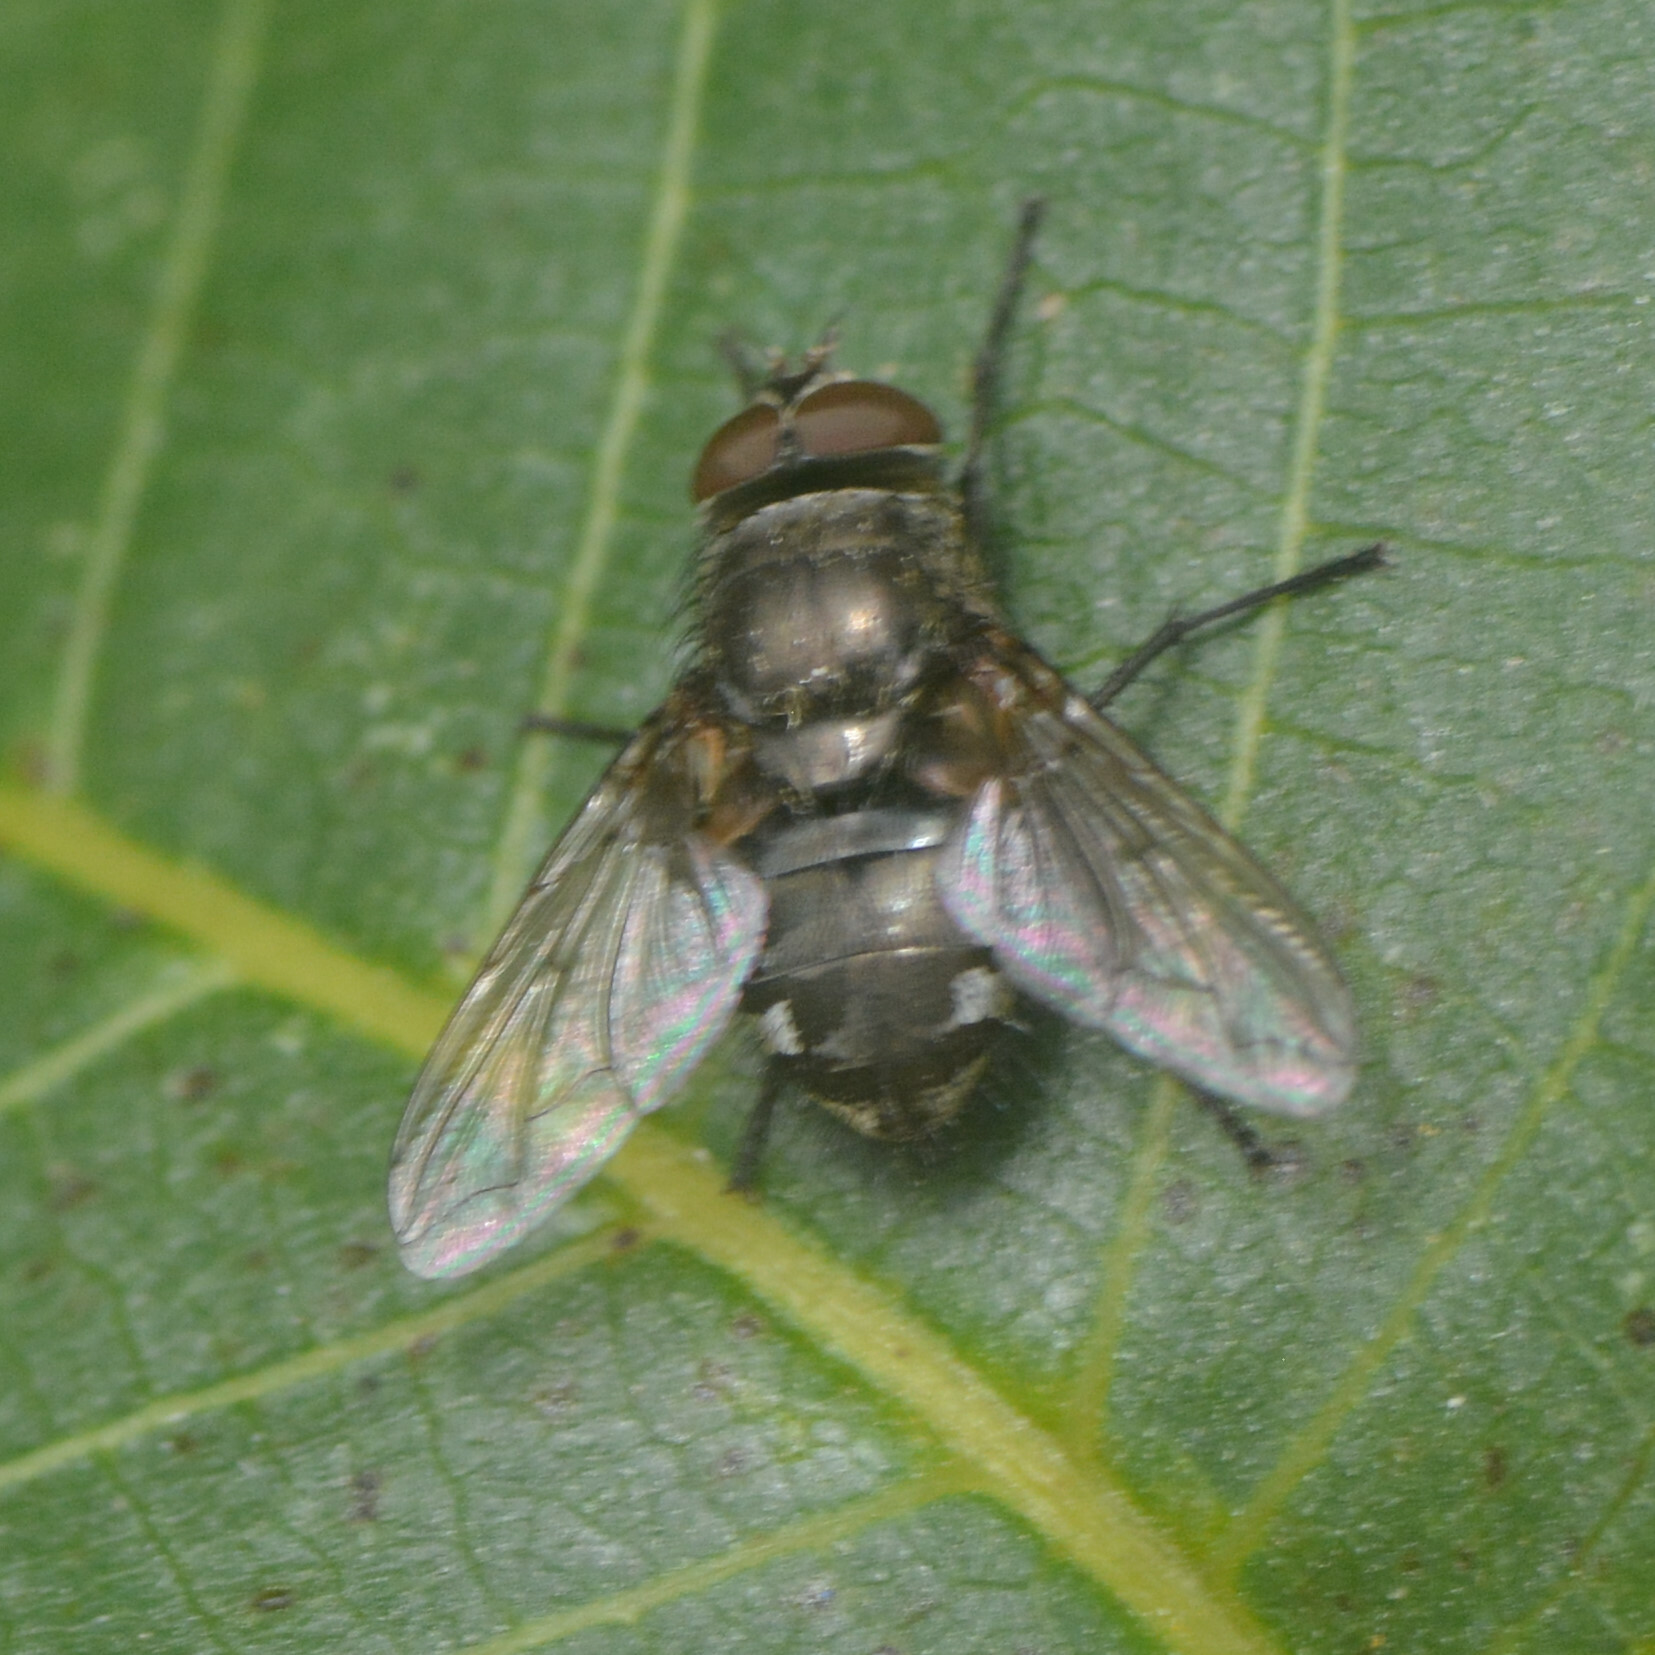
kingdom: Animalia
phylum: Arthropoda
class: Insecta
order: Diptera
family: Polleniidae
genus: Pollenia
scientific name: Pollenia
